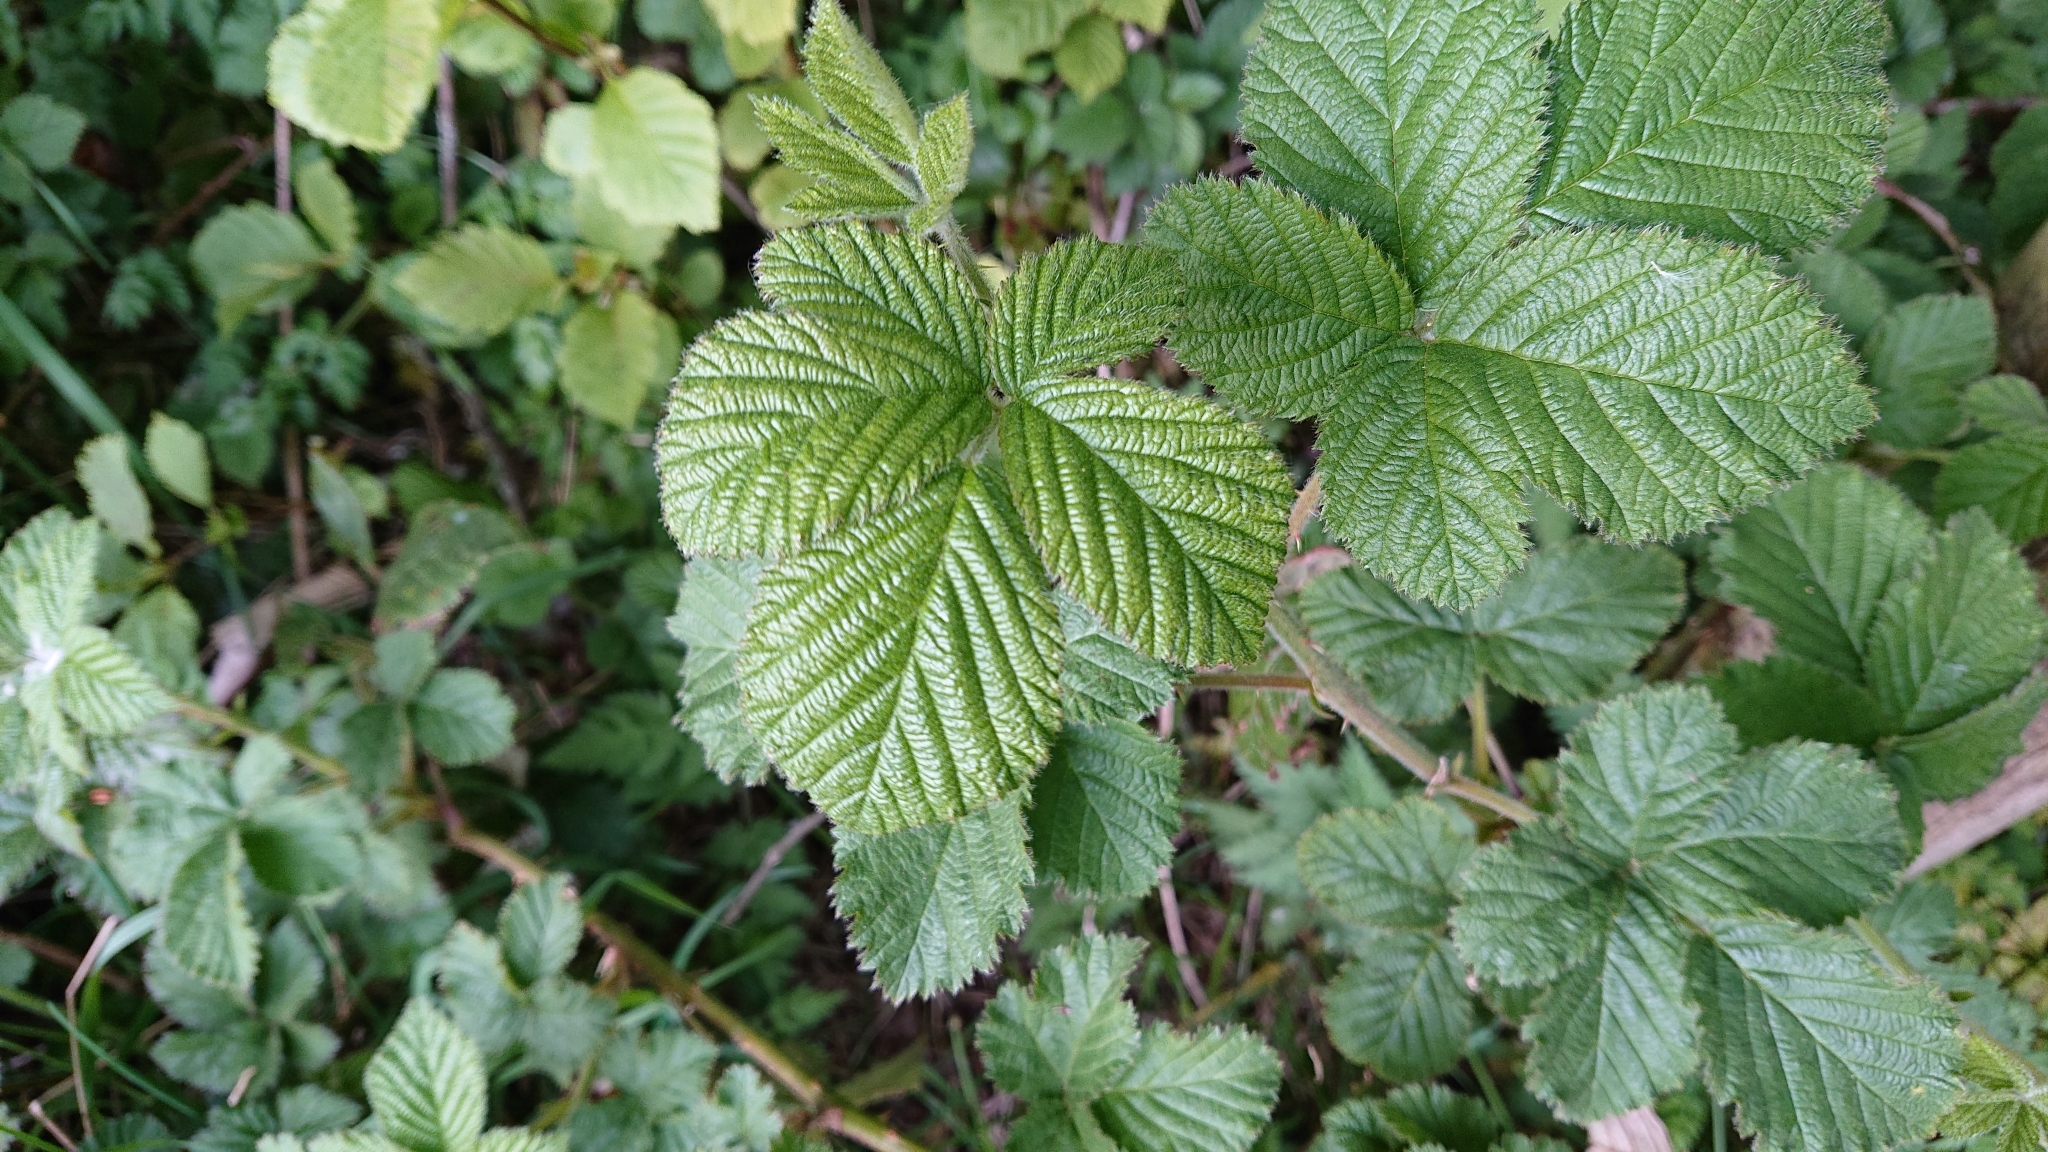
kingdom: Plantae
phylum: Tracheophyta
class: Magnoliopsida
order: Rosales
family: Rosaceae
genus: Rubus
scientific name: Rubus
